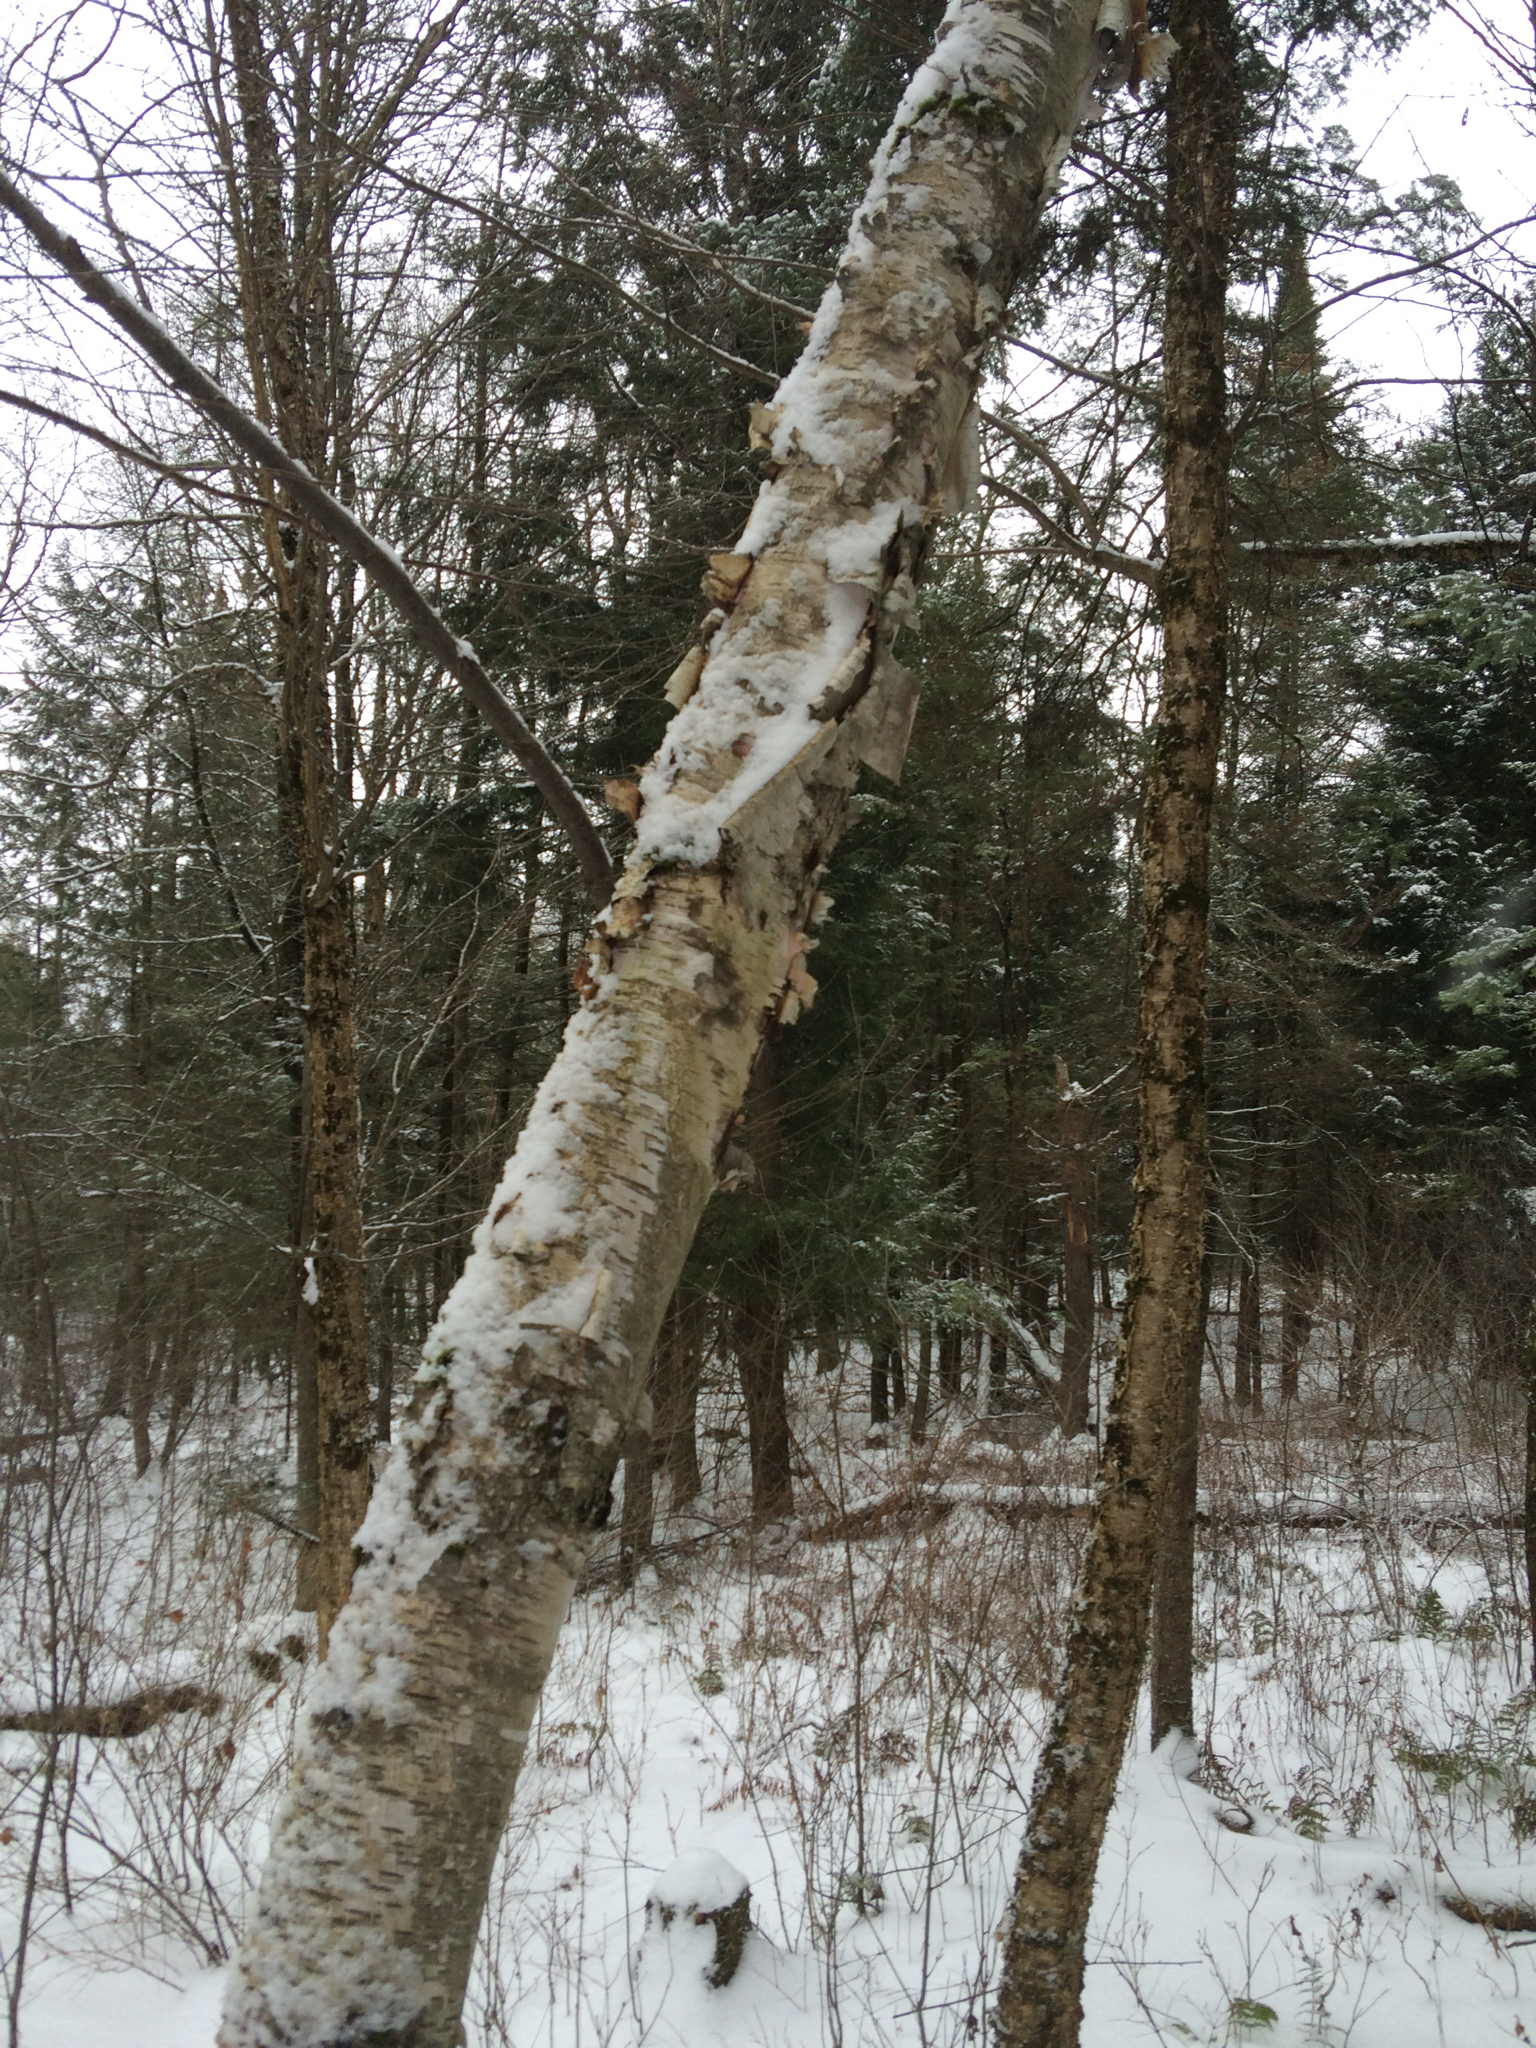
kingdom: Plantae
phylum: Tracheophyta
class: Magnoliopsida
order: Fagales
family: Betulaceae
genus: Betula
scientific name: Betula papyrifera
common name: Paper birch
